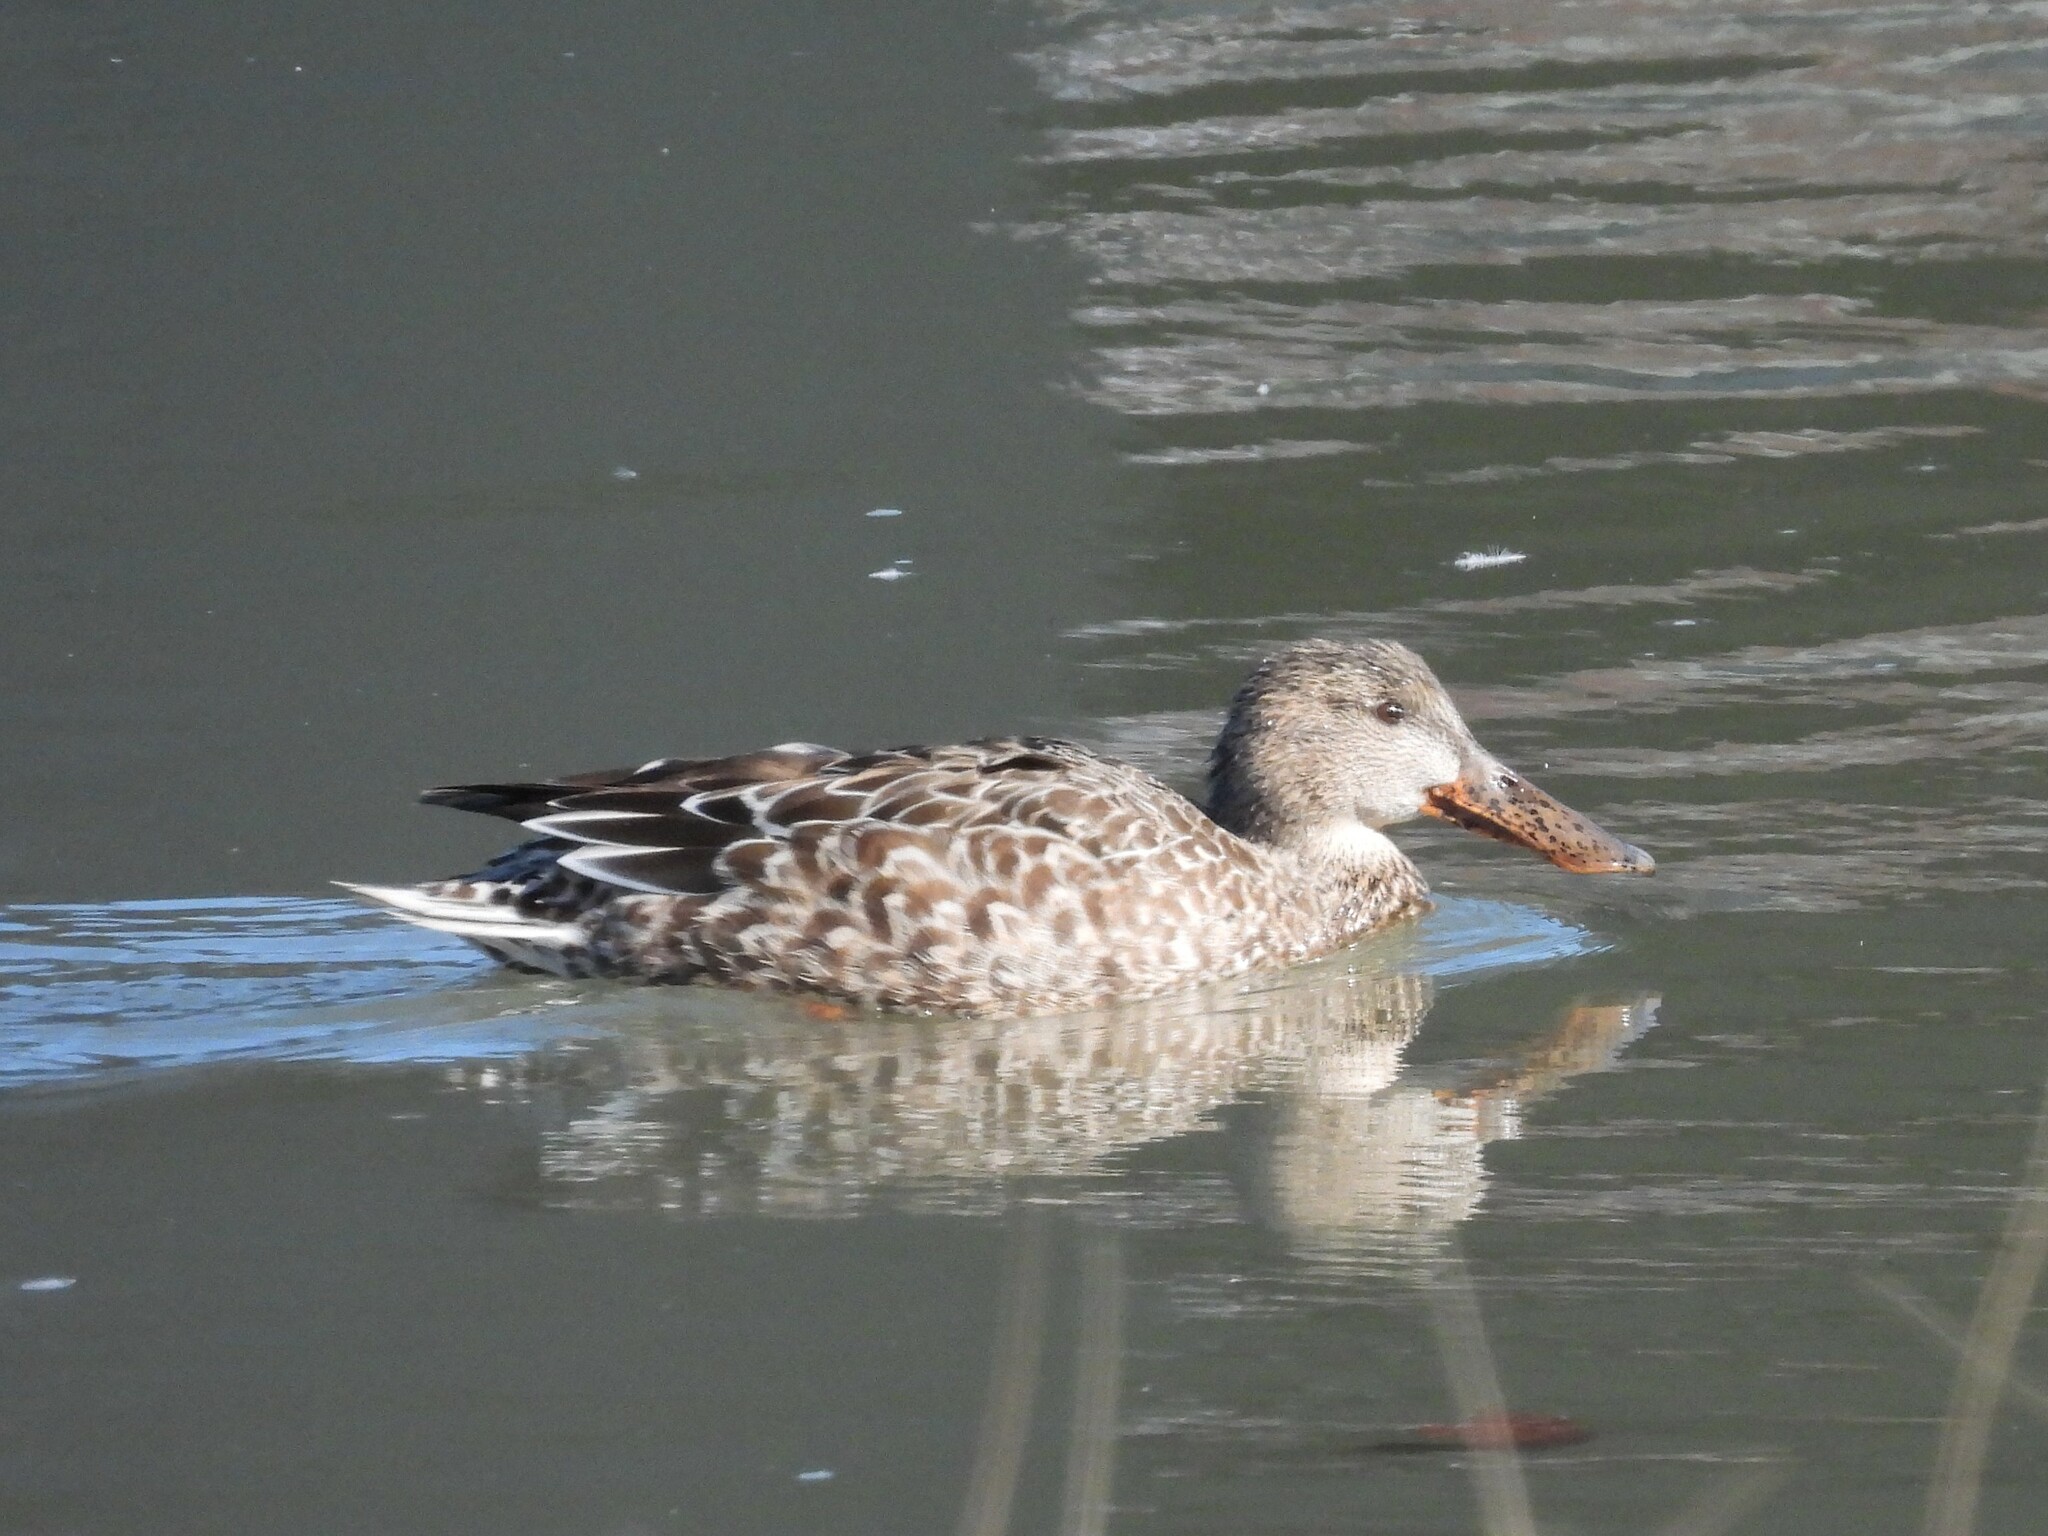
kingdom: Animalia
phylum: Chordata
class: Aves
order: Anseriformes
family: Anatidae
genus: Spatula
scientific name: Spatula clypeata
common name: Northern shoveler
